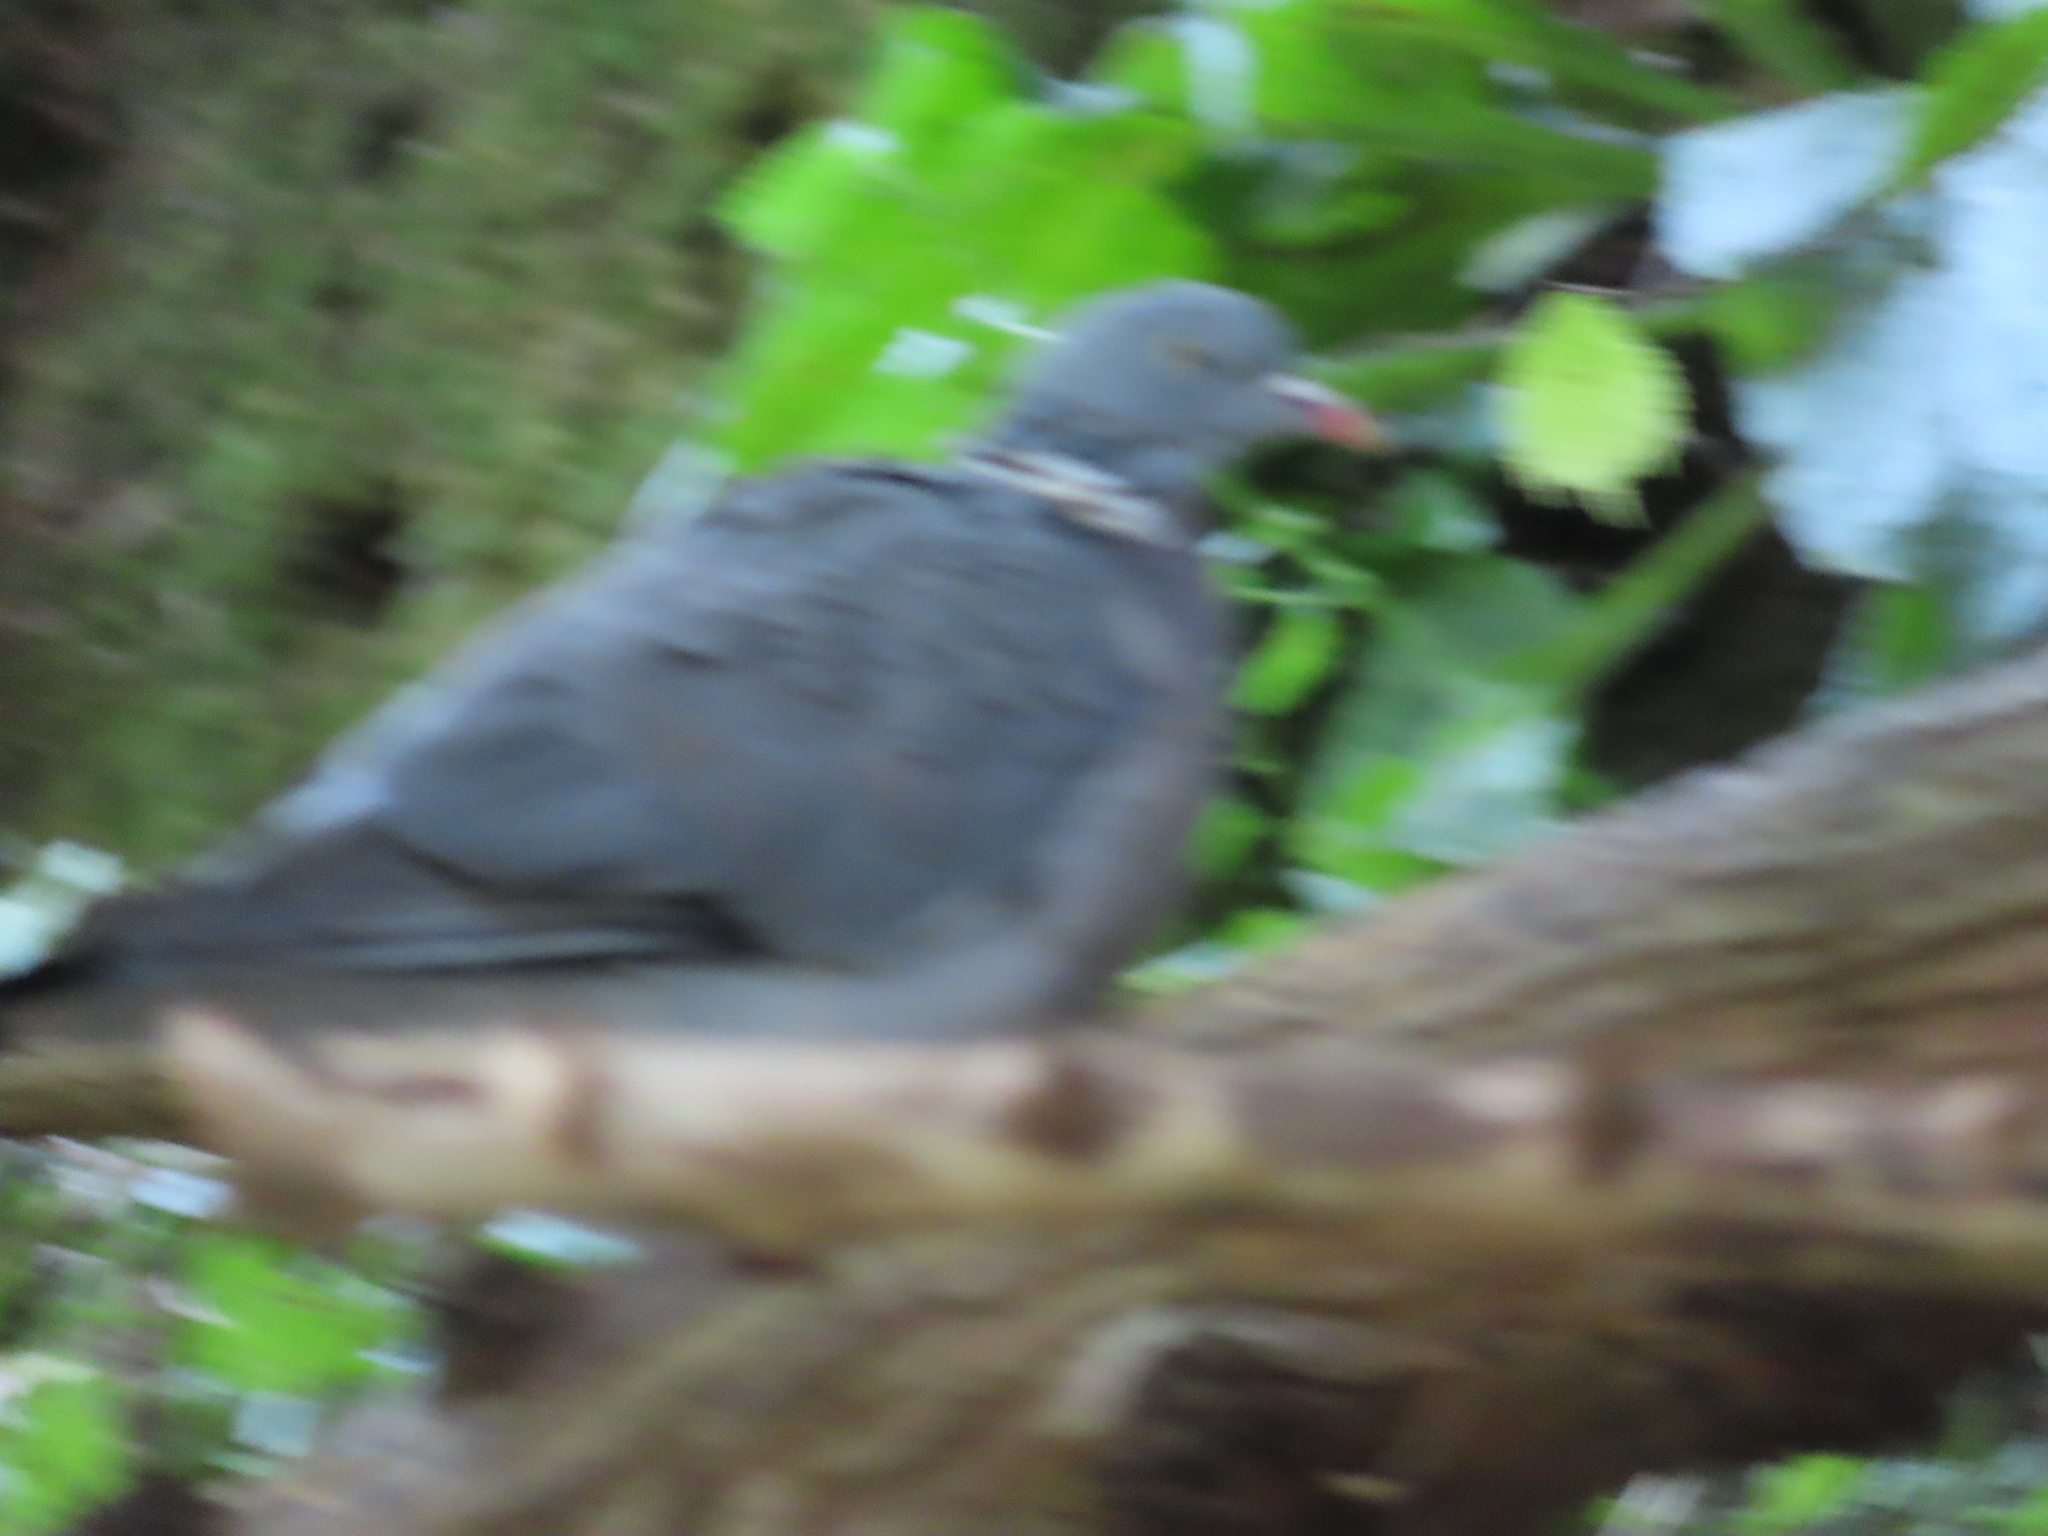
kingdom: Animalia
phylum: Chordata
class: Aves
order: Columbiformes
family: Columbidae
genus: Columba
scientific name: Columba palumbus
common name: Common wood pigeon
